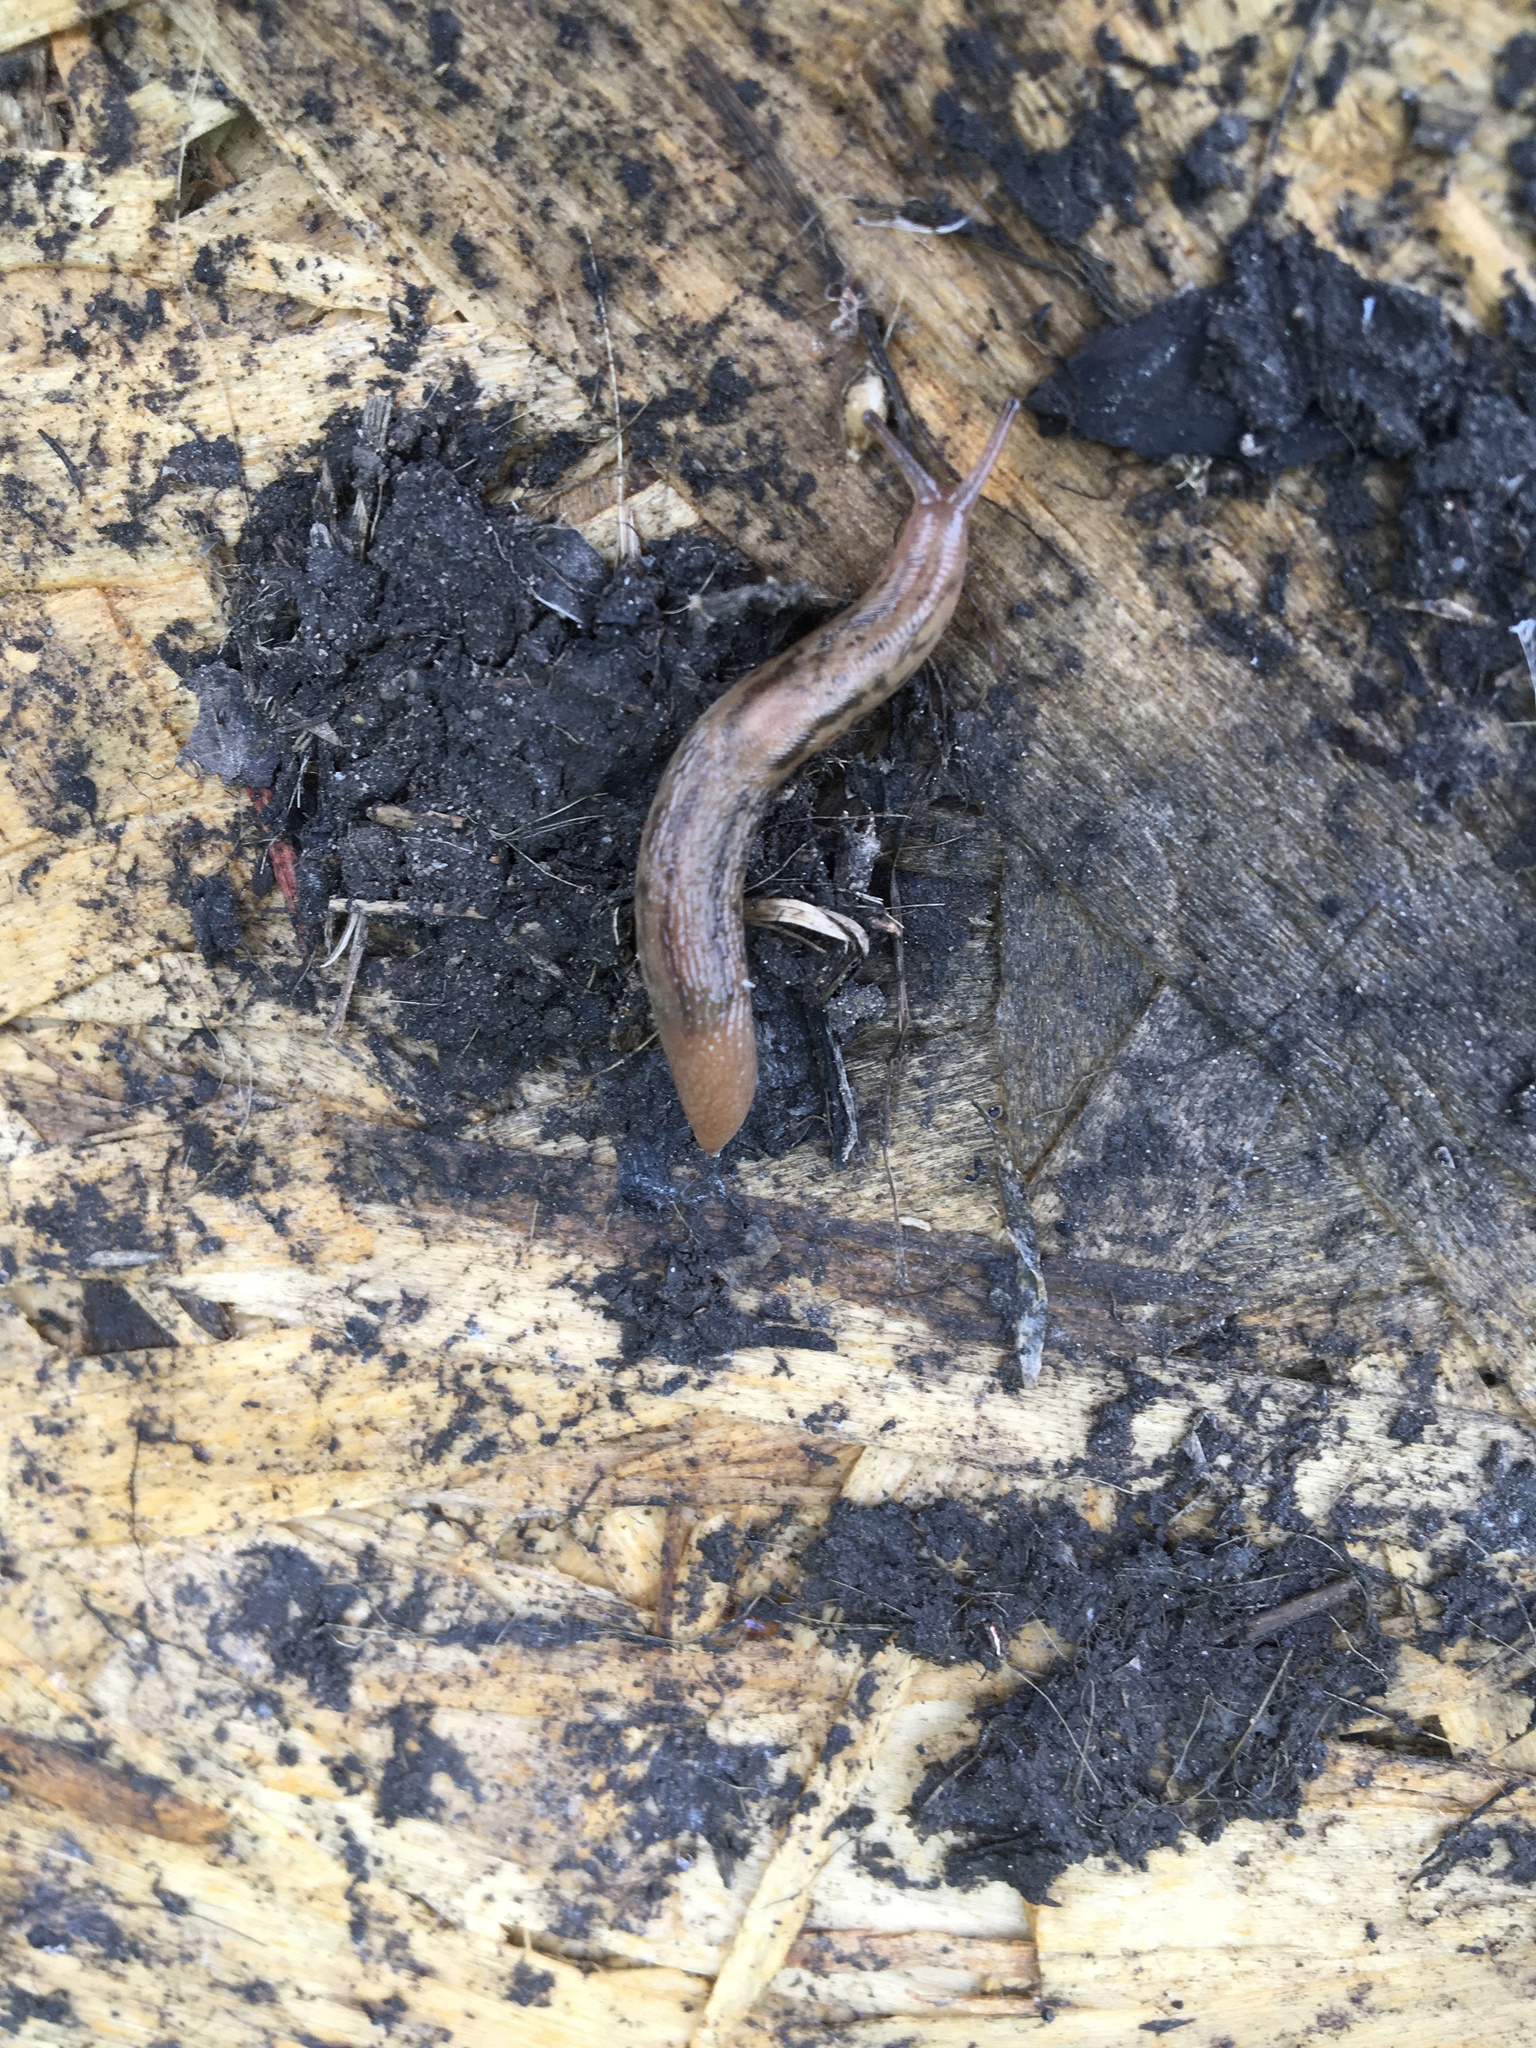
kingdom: Animalia
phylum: Mollusca
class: Gastropoda
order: Stylommatophora
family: Limacidae
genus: Ambigolimax
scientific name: Ambigolimax
